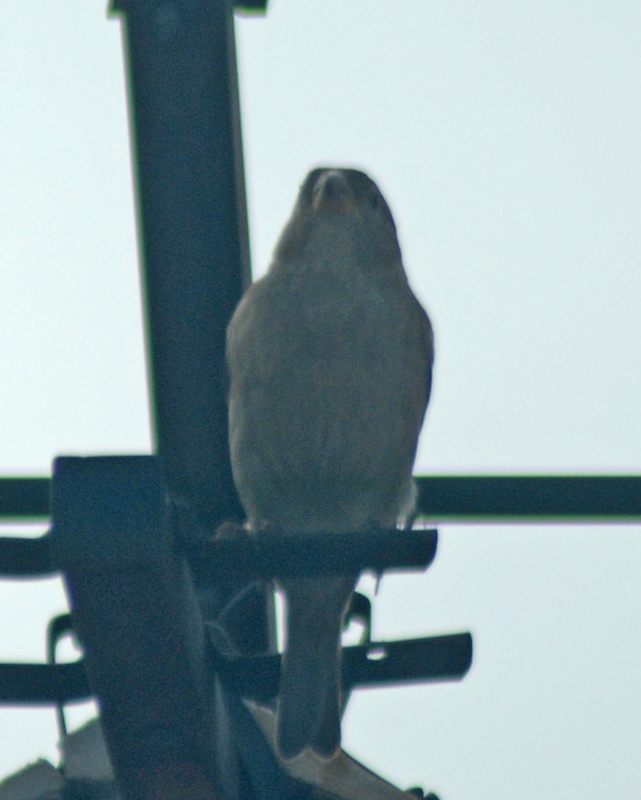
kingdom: Animalia
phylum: Chordata
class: Aves
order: Passeriformes
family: Passeridae
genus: Passer
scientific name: Passer domesticus
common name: House sparrow
